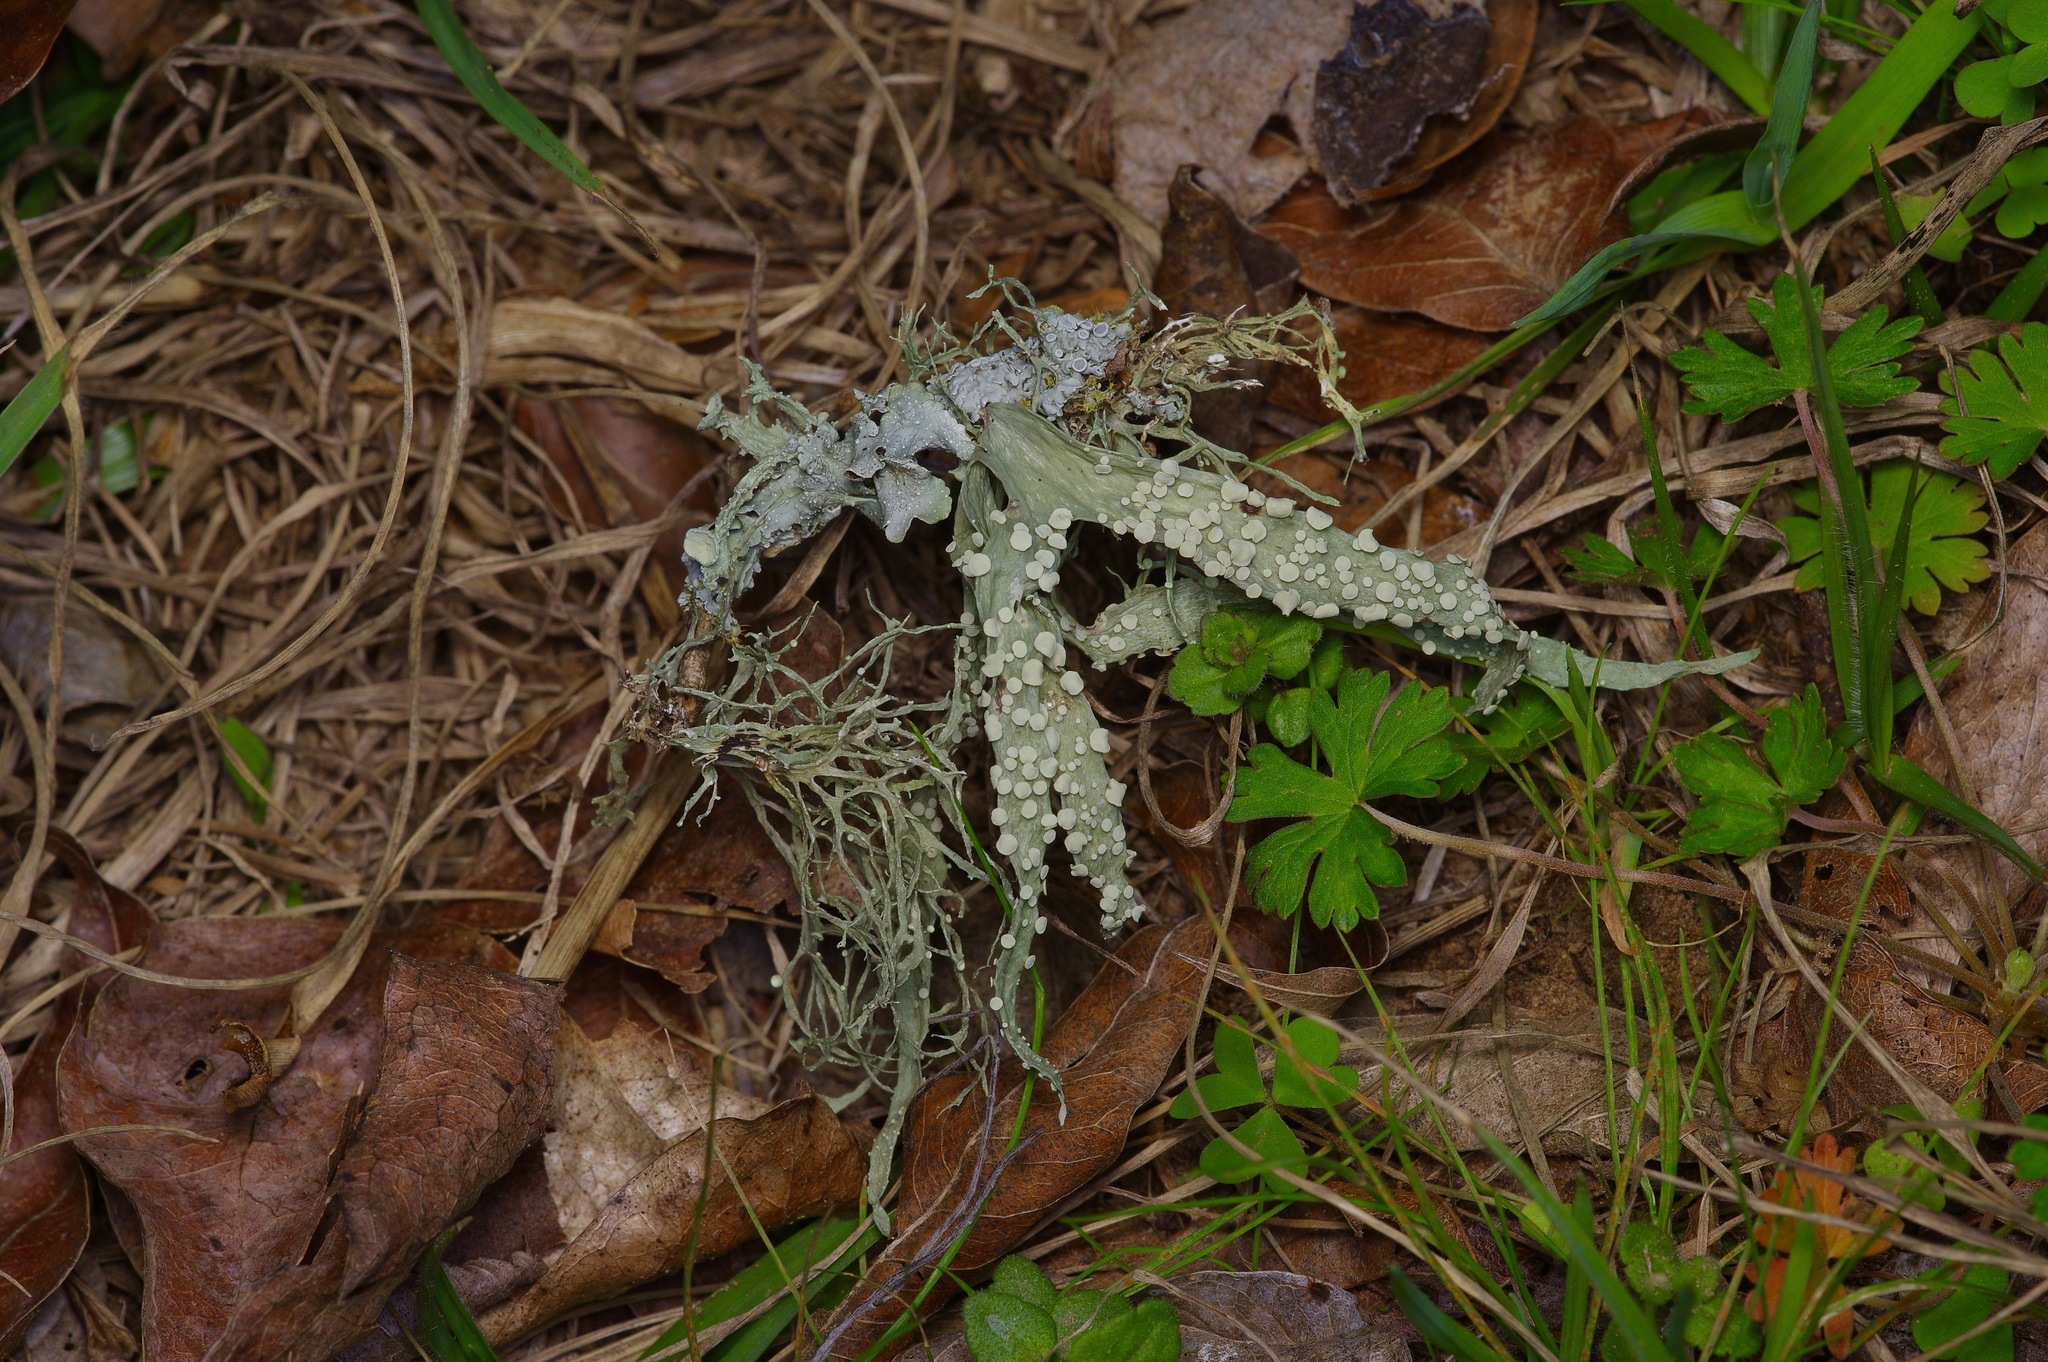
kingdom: Fungi
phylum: Ascomycota
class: Lecanoromycetes
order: Lecanorales
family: Ramalinaceae
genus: Ramalina
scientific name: Ramalina celastri
